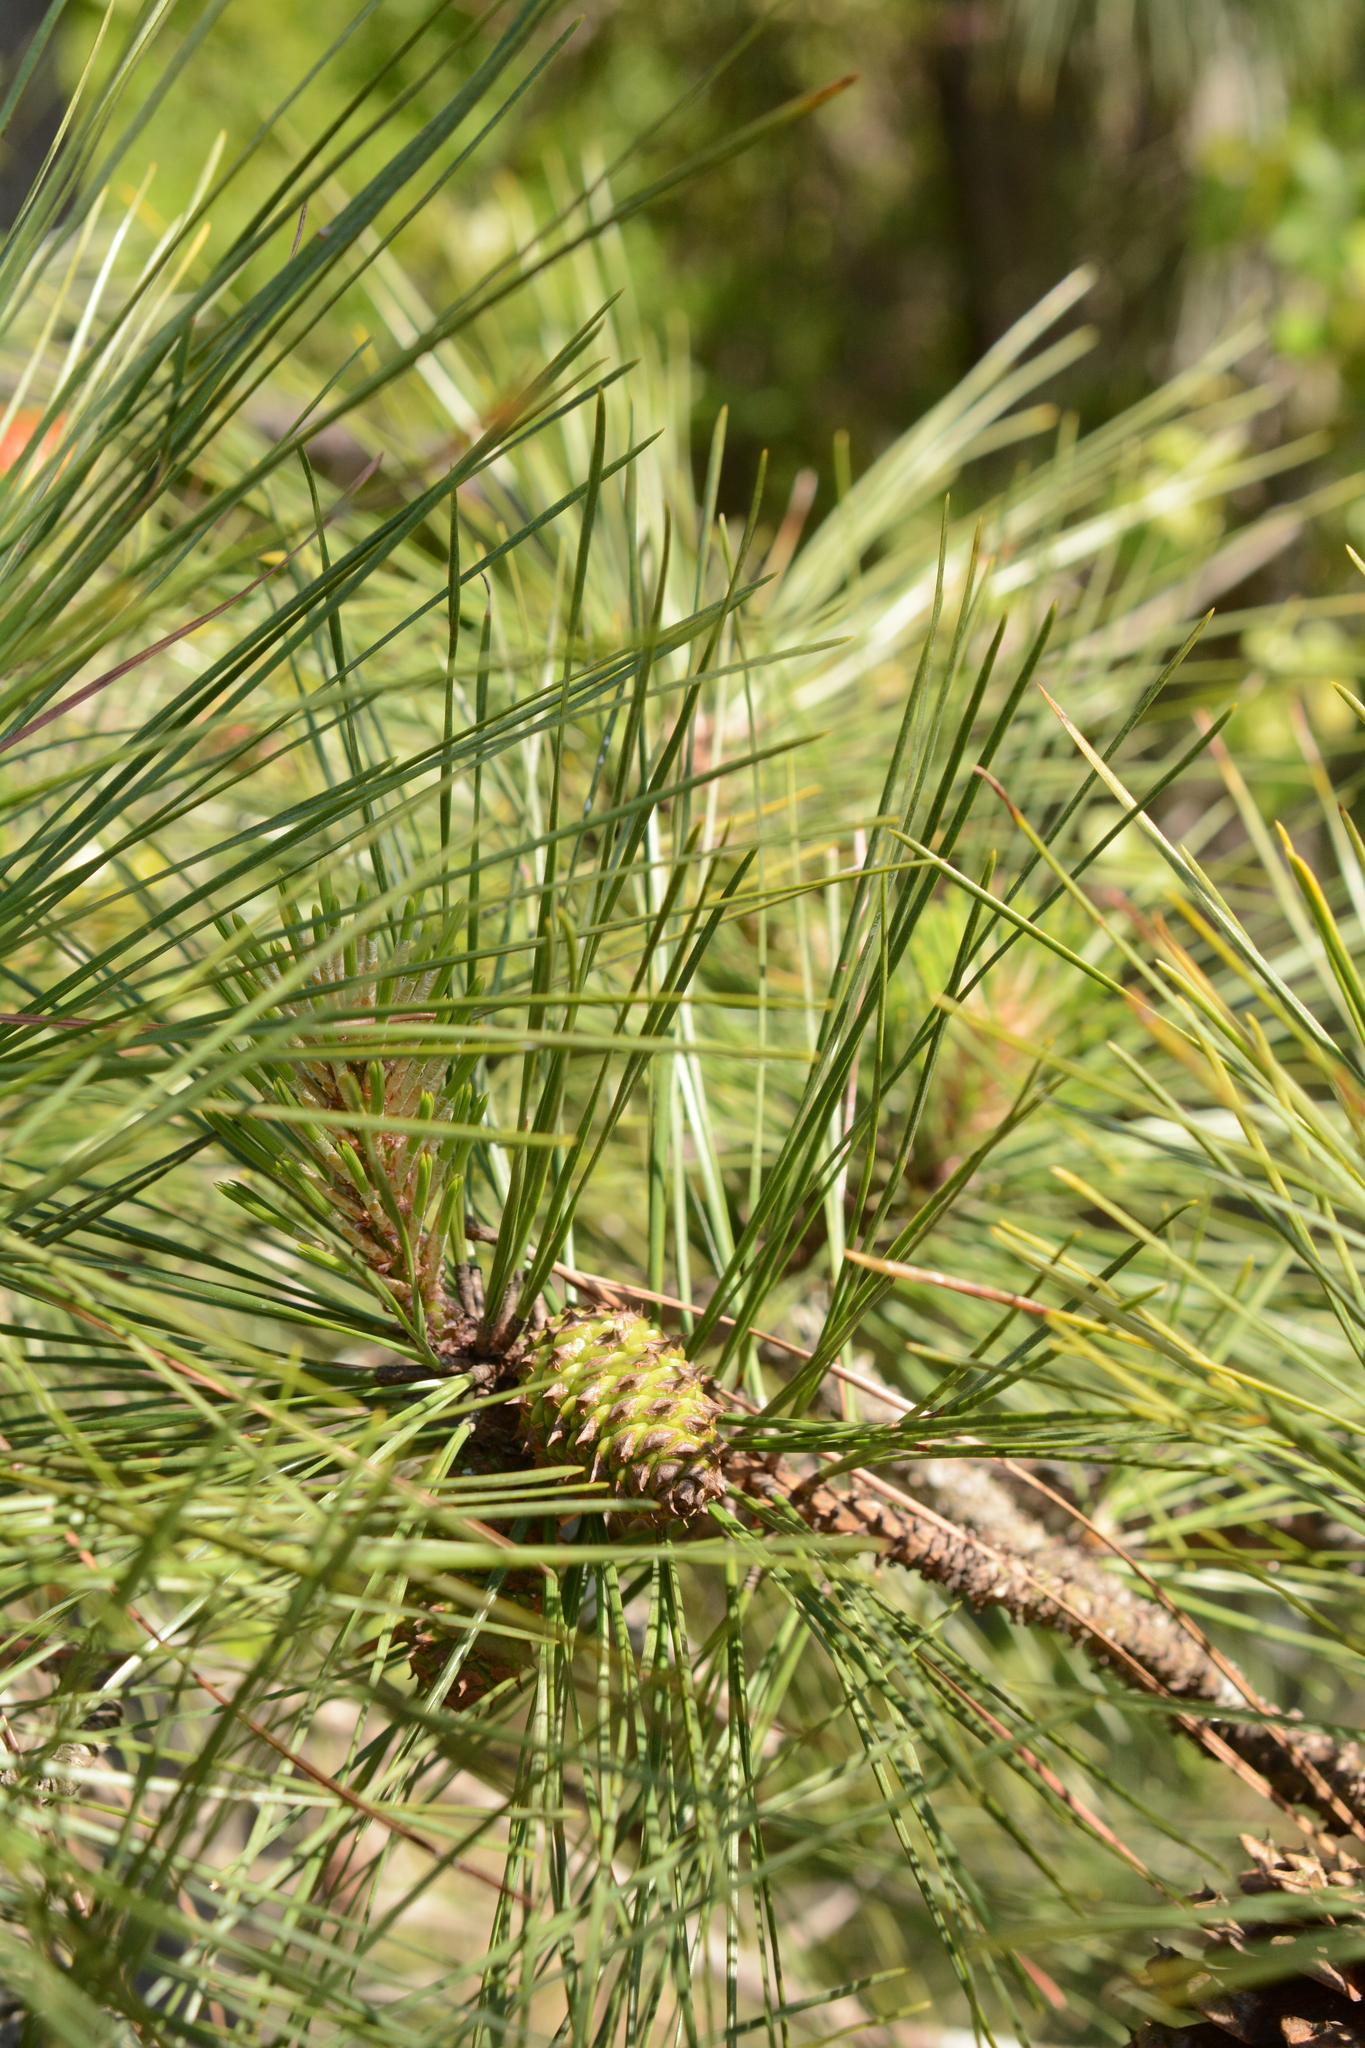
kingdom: Plantae
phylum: Tracheophyta
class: Pinopsida
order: Pinales
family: Pinaceae
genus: Pinus
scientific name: Pinus taeda
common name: Loblolly pine
